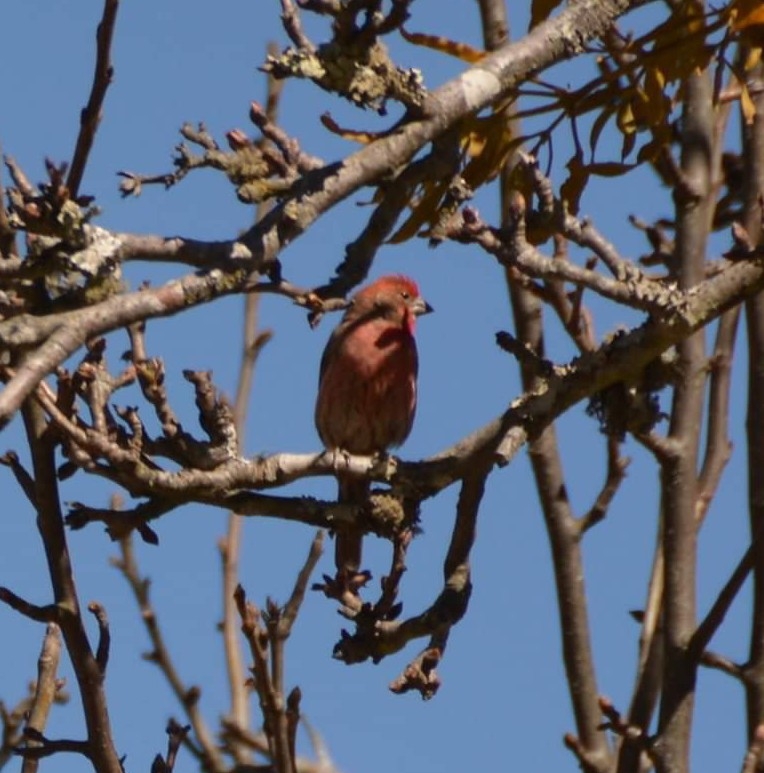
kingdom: Animalia
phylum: Chordata
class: Aves
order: Passeriformes
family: Fringillidae
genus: Haemorhous
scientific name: Haemorhous mexicanus
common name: House finch
